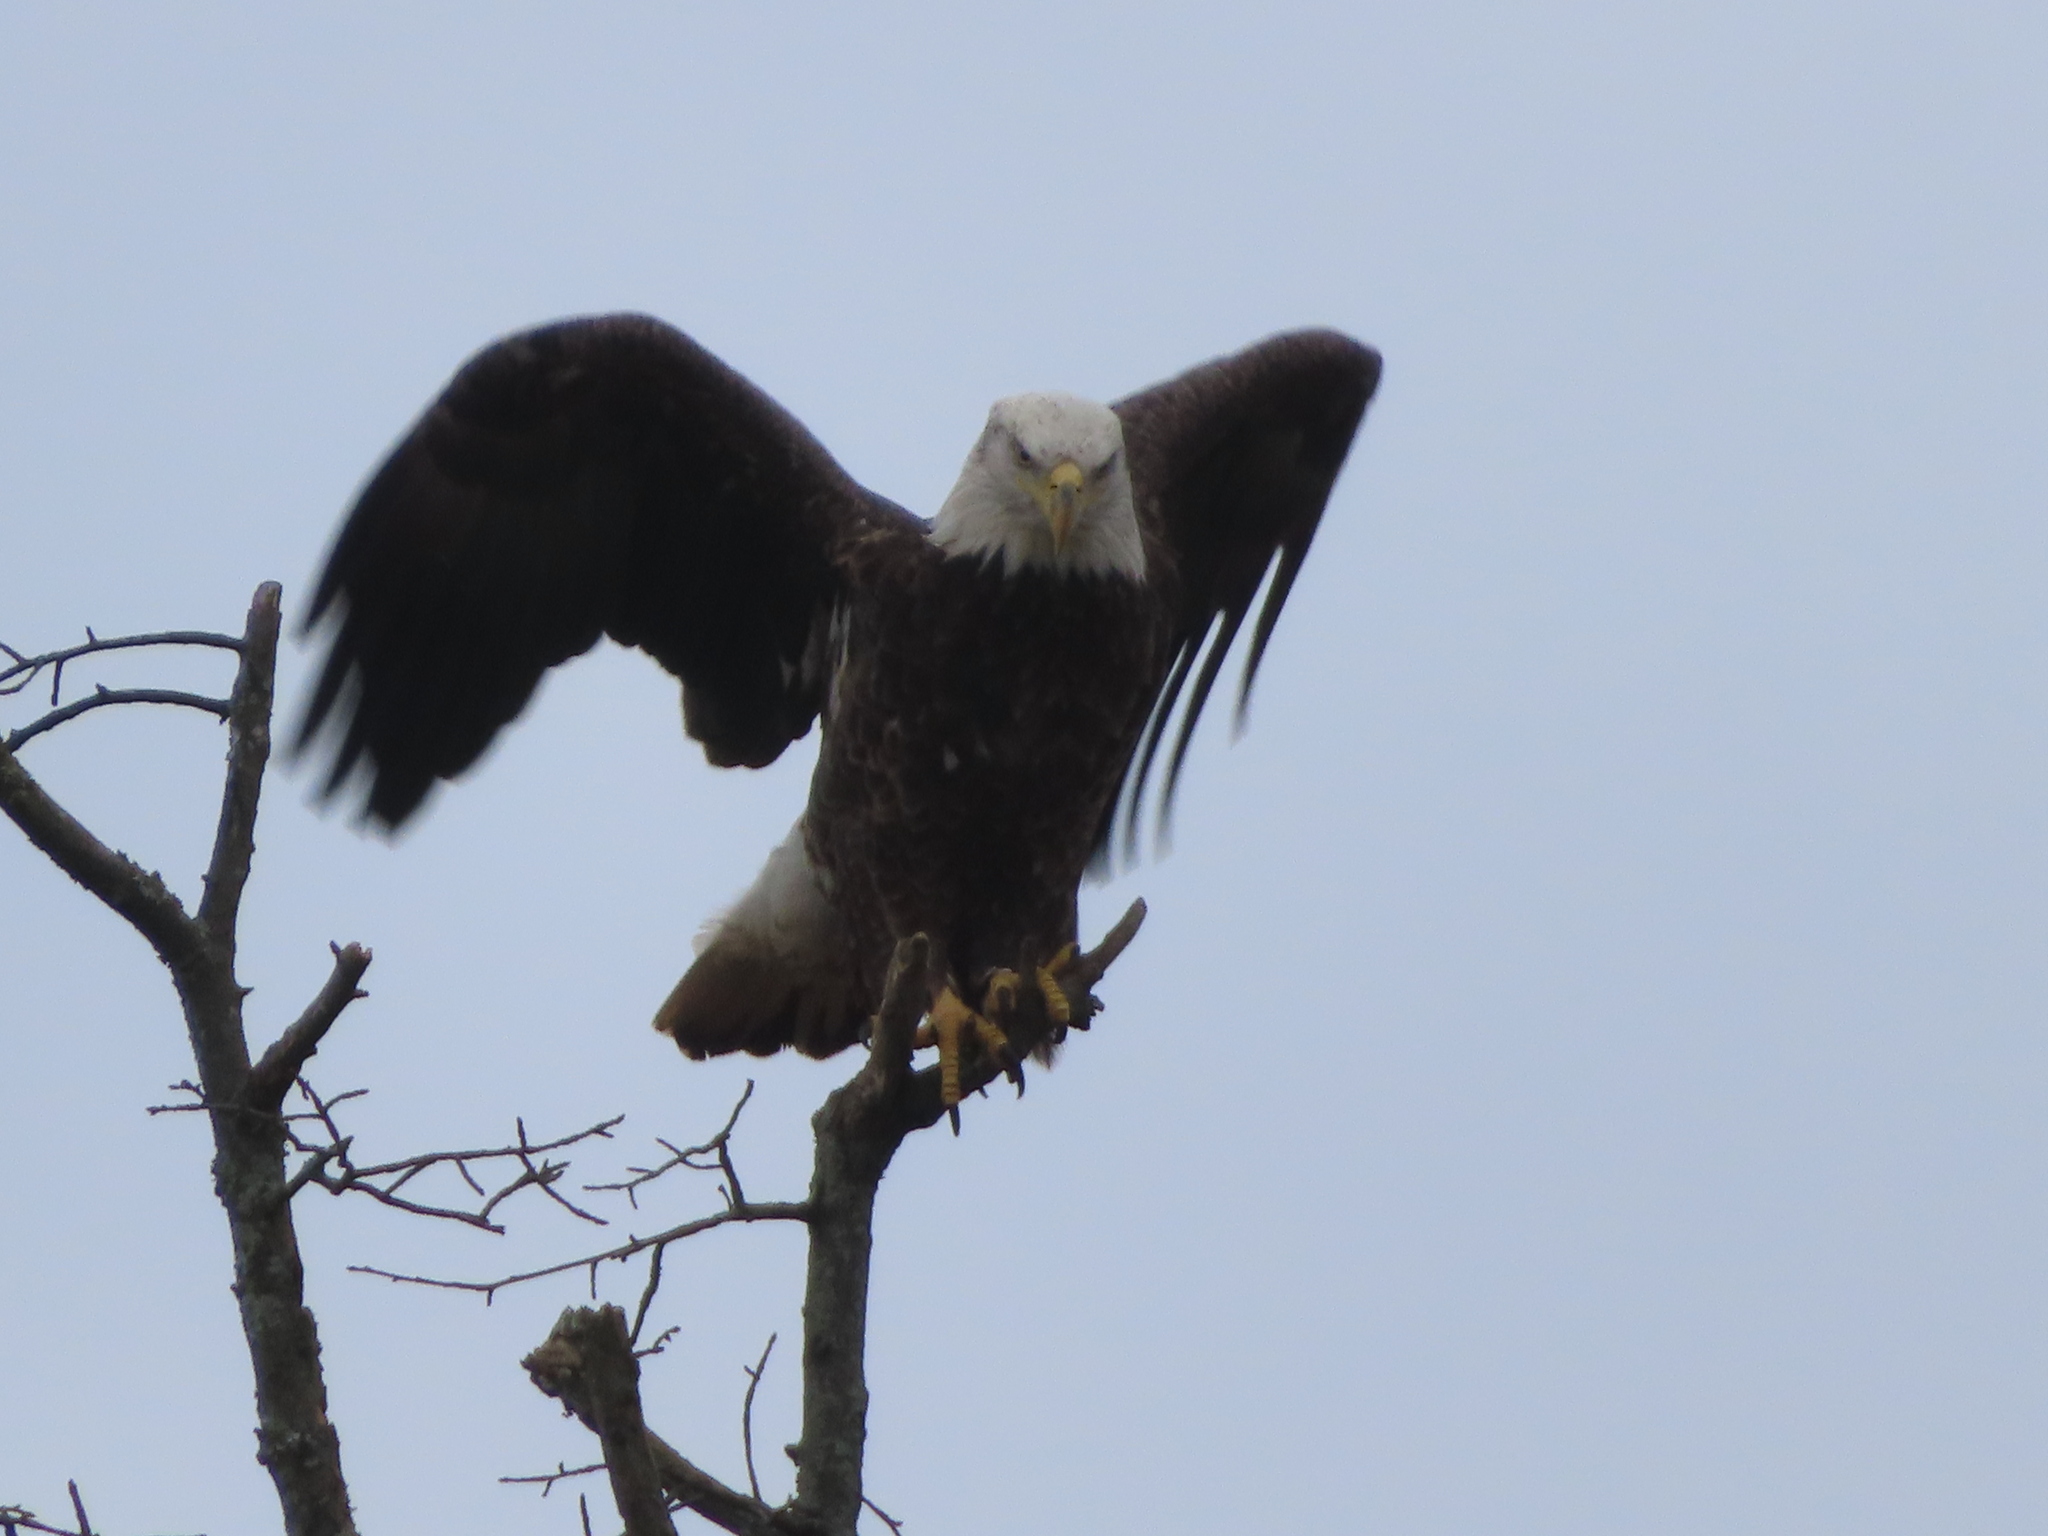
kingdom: Animalia
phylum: Chordata
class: Aves
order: Accipitriformes
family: Accipitridae
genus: Haliaeetus
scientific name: Haliaeetus leucocephalus
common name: Bald eagle
